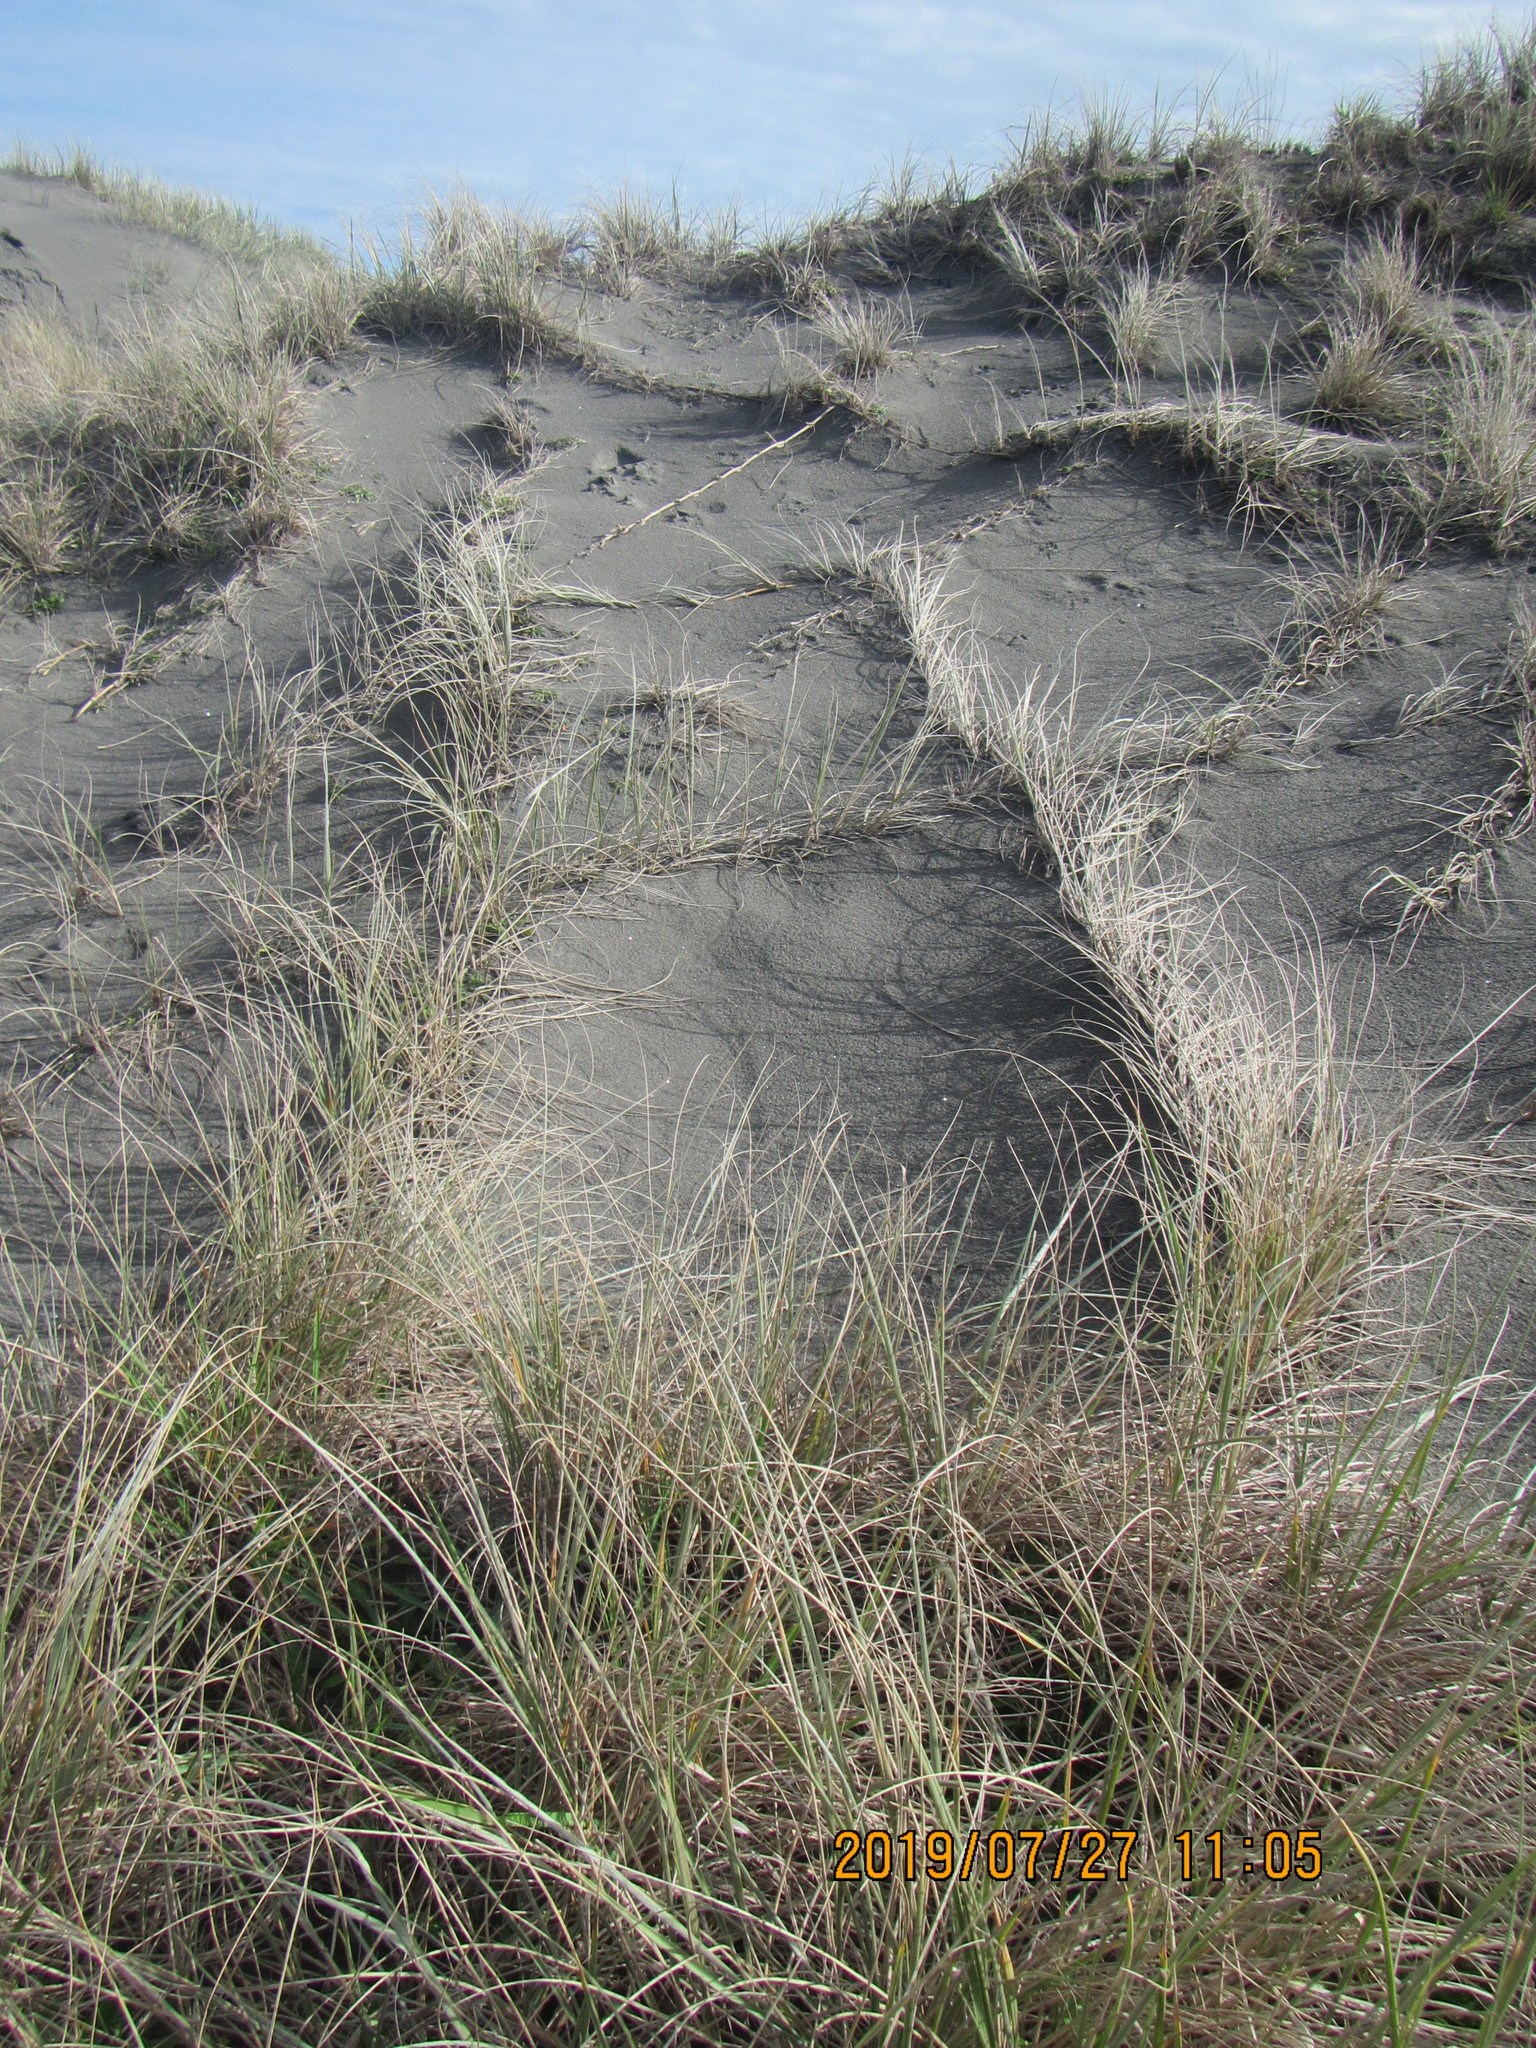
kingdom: Plantae
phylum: Tracheophyta
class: Liliopsida
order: Poales
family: Poaceae
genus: Spinifex
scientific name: Spinifex sericeus
